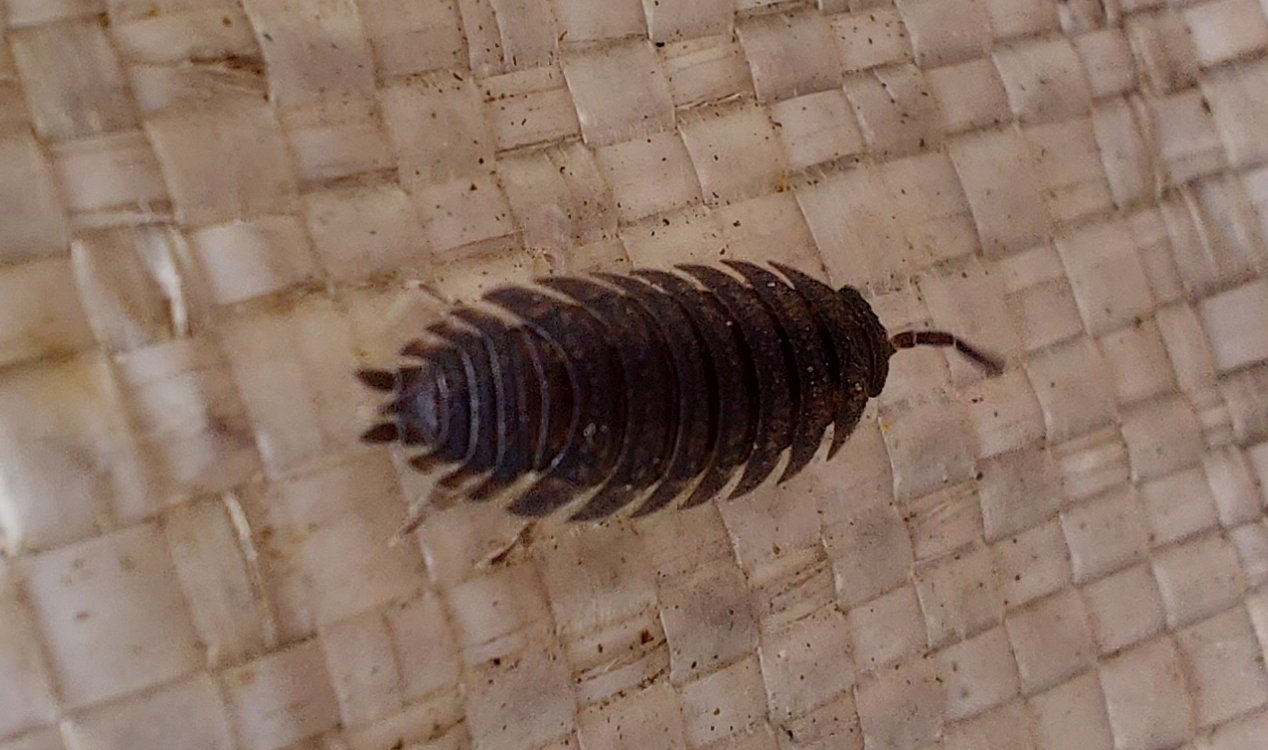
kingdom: Animalia
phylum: Arthropoda
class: Malacostraca
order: Isopoda
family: Porcellionidae
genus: Porcellio
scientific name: Porcellio scaber
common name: Common rough woodlouse
